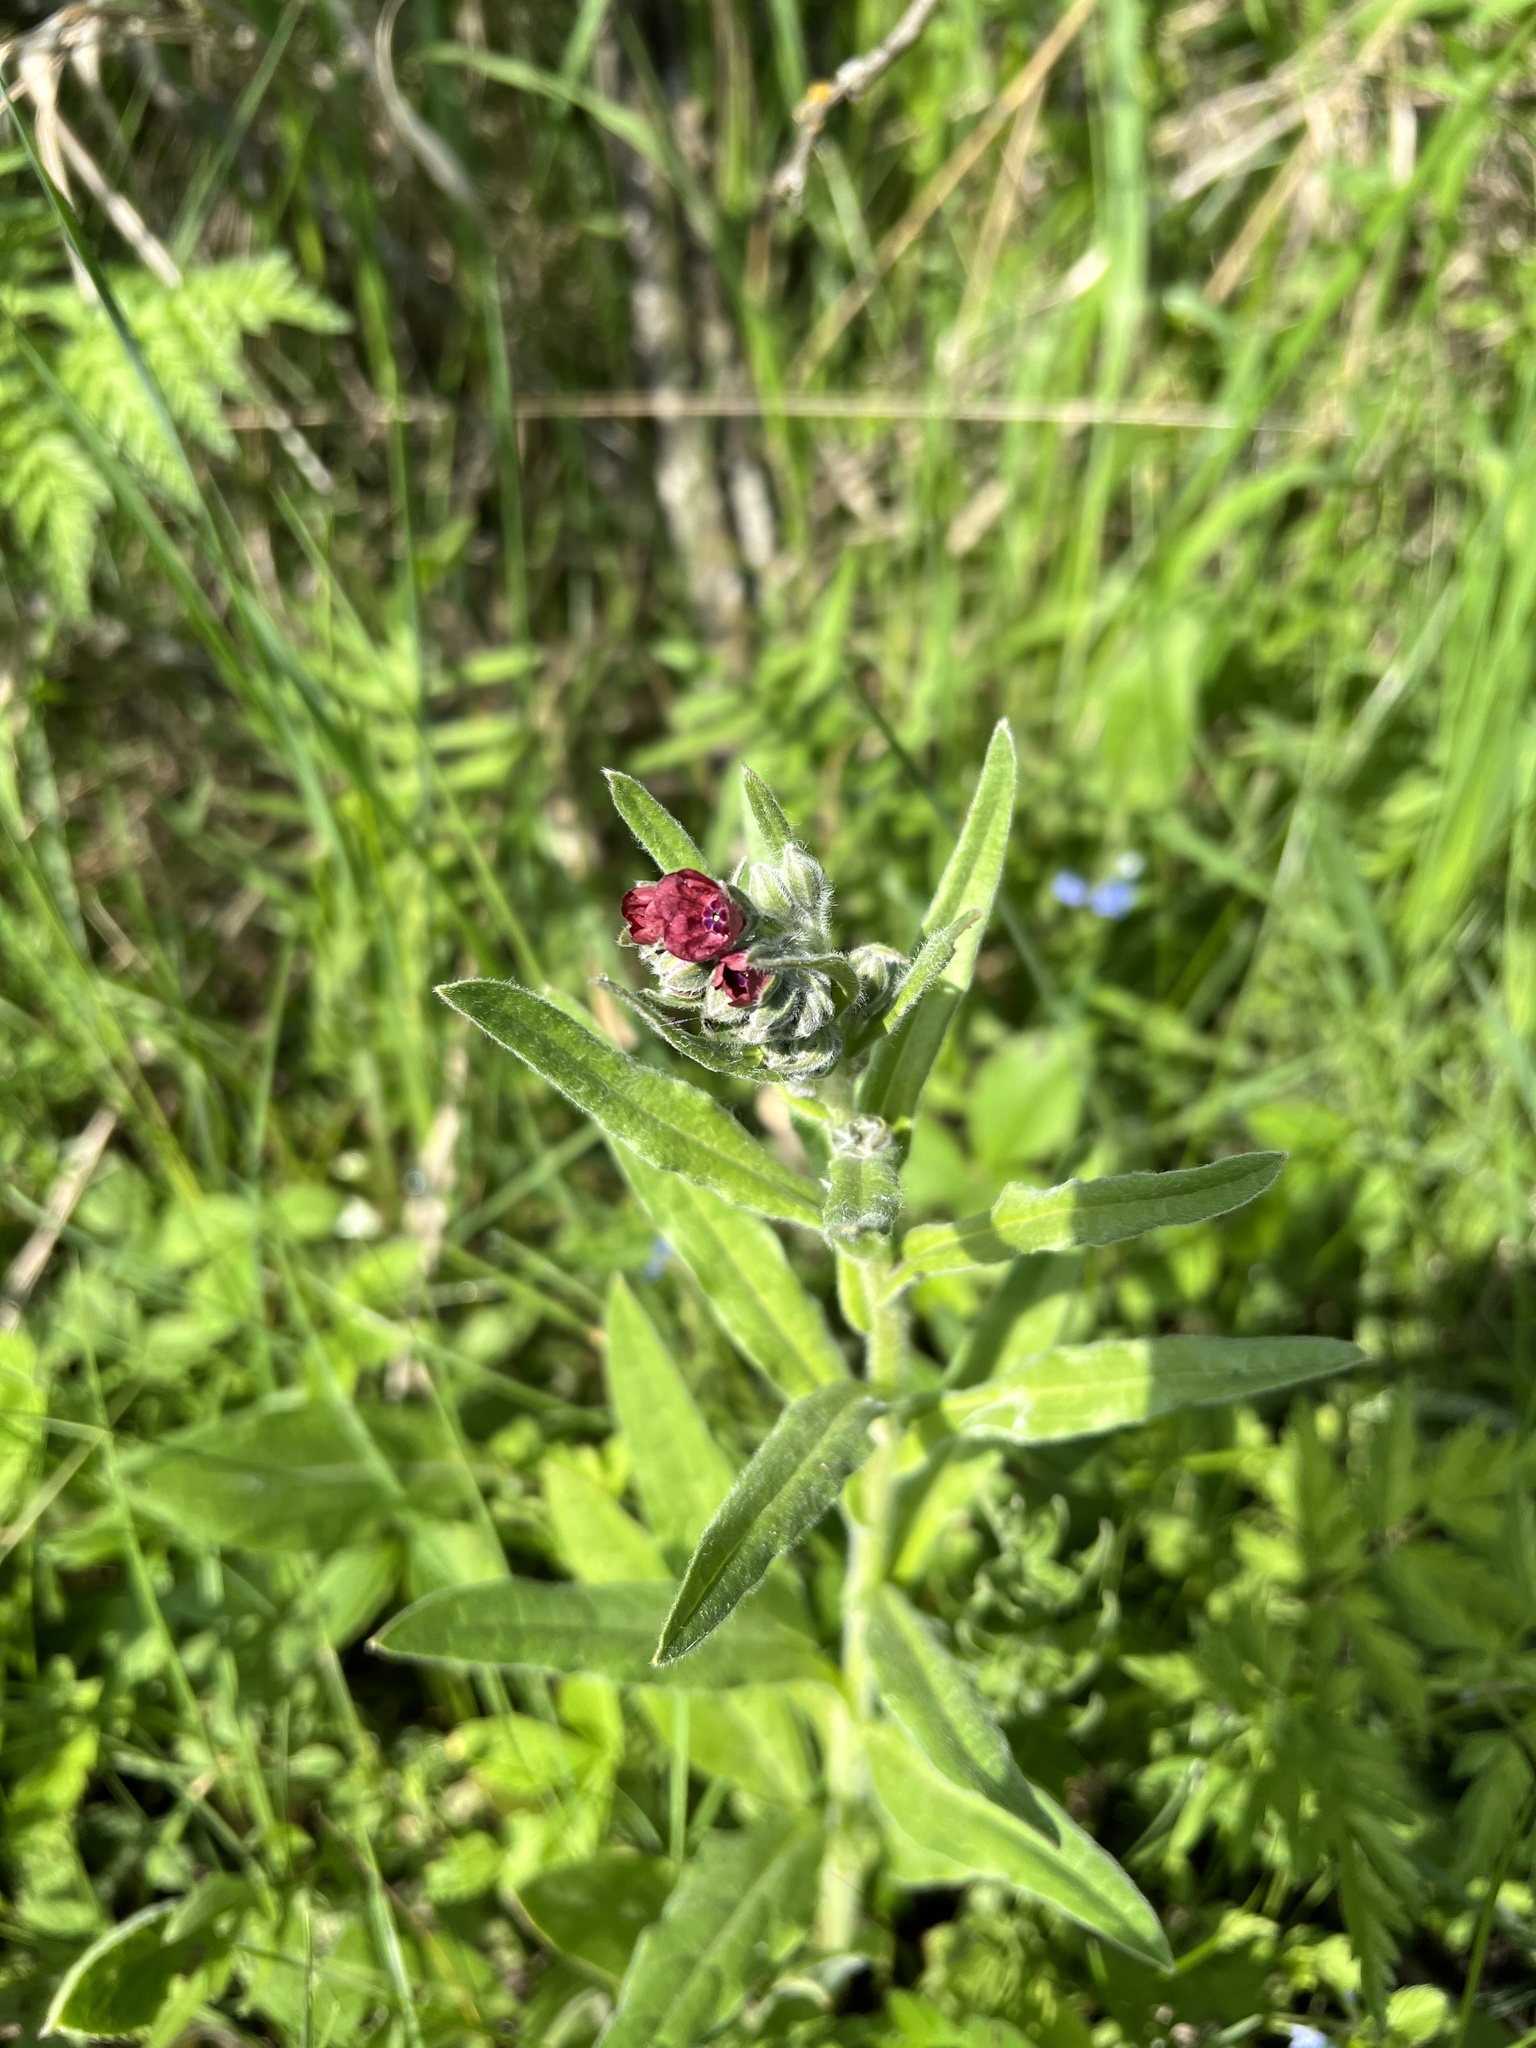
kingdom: Plantae
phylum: Tracheophyta
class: Magnoliopsida
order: Boraginales
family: Boraginaceae
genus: Cynoglossum
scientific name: Cynoglossum officinale
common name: Hound's-tongue
